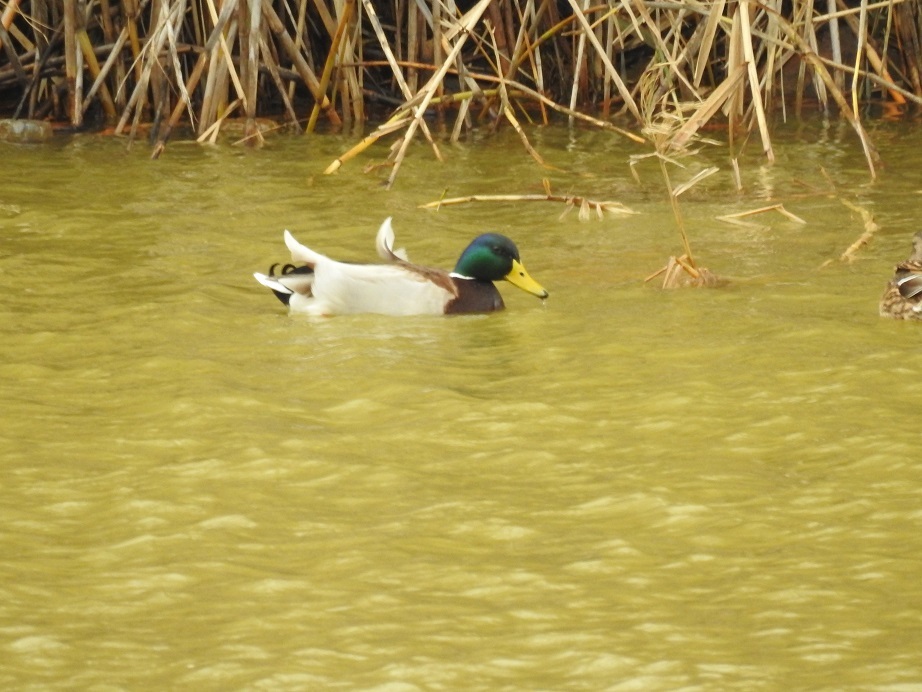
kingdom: Animalia
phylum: Chordata
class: Aves
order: Anseriformes
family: Anatidae
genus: Anas
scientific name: Anas platyrhynchos
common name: Mallard
